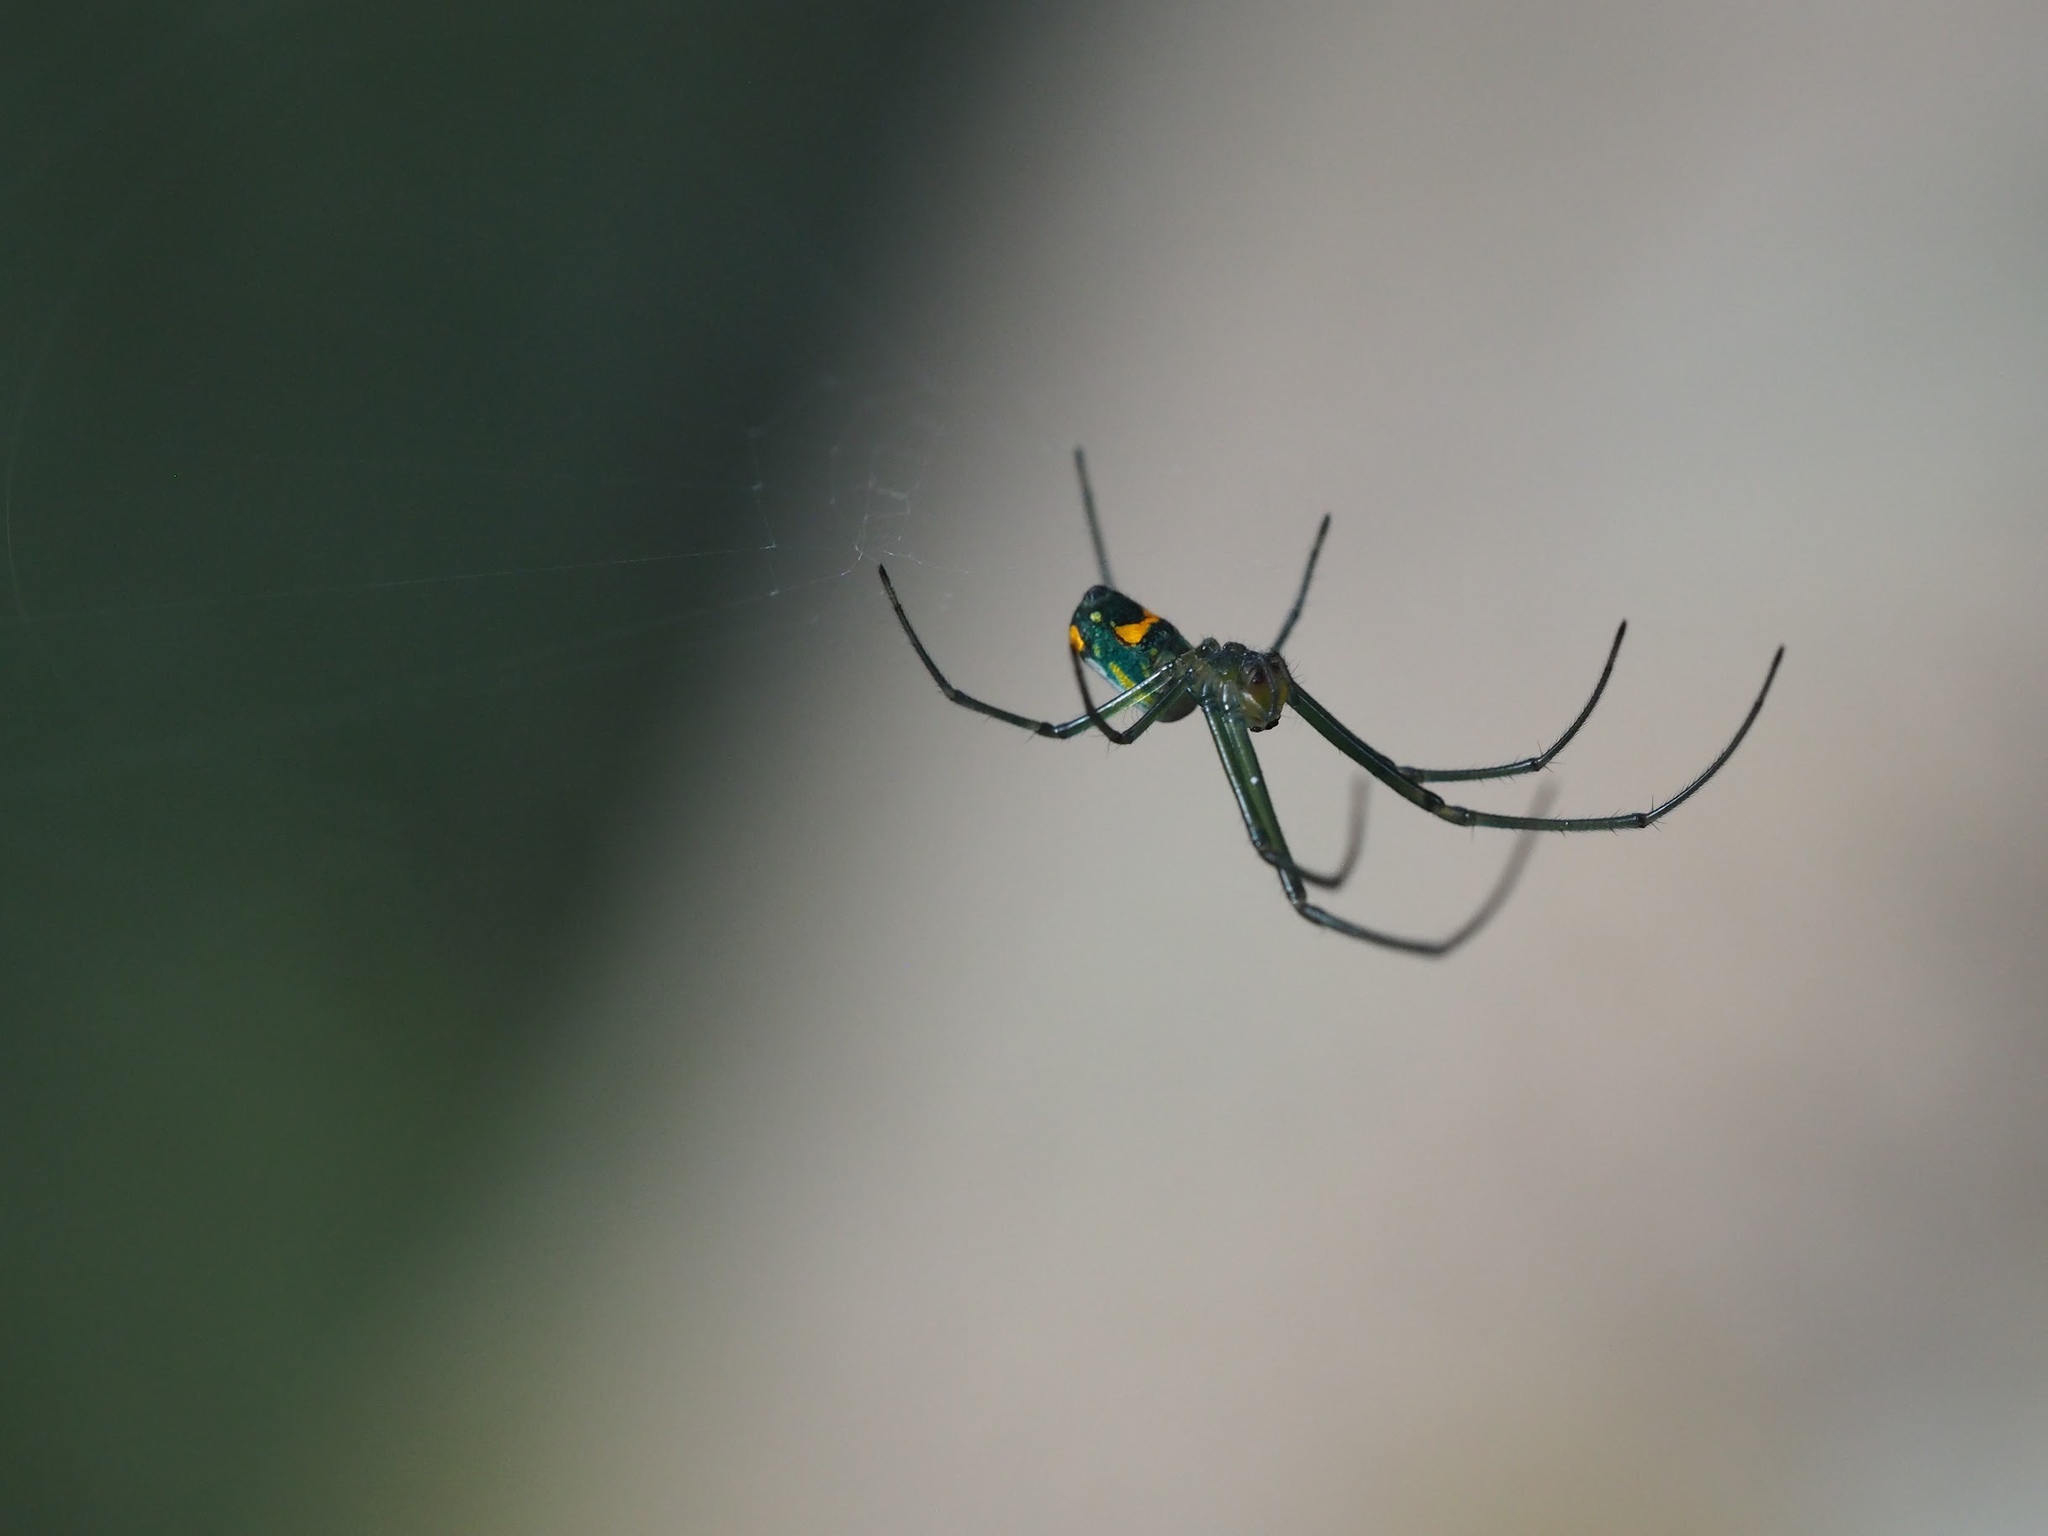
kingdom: Animalia
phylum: Arthropoda
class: Arachnida
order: Araneae
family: Tetragnathidae
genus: Leucauge
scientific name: Leucauge argyrobapta
